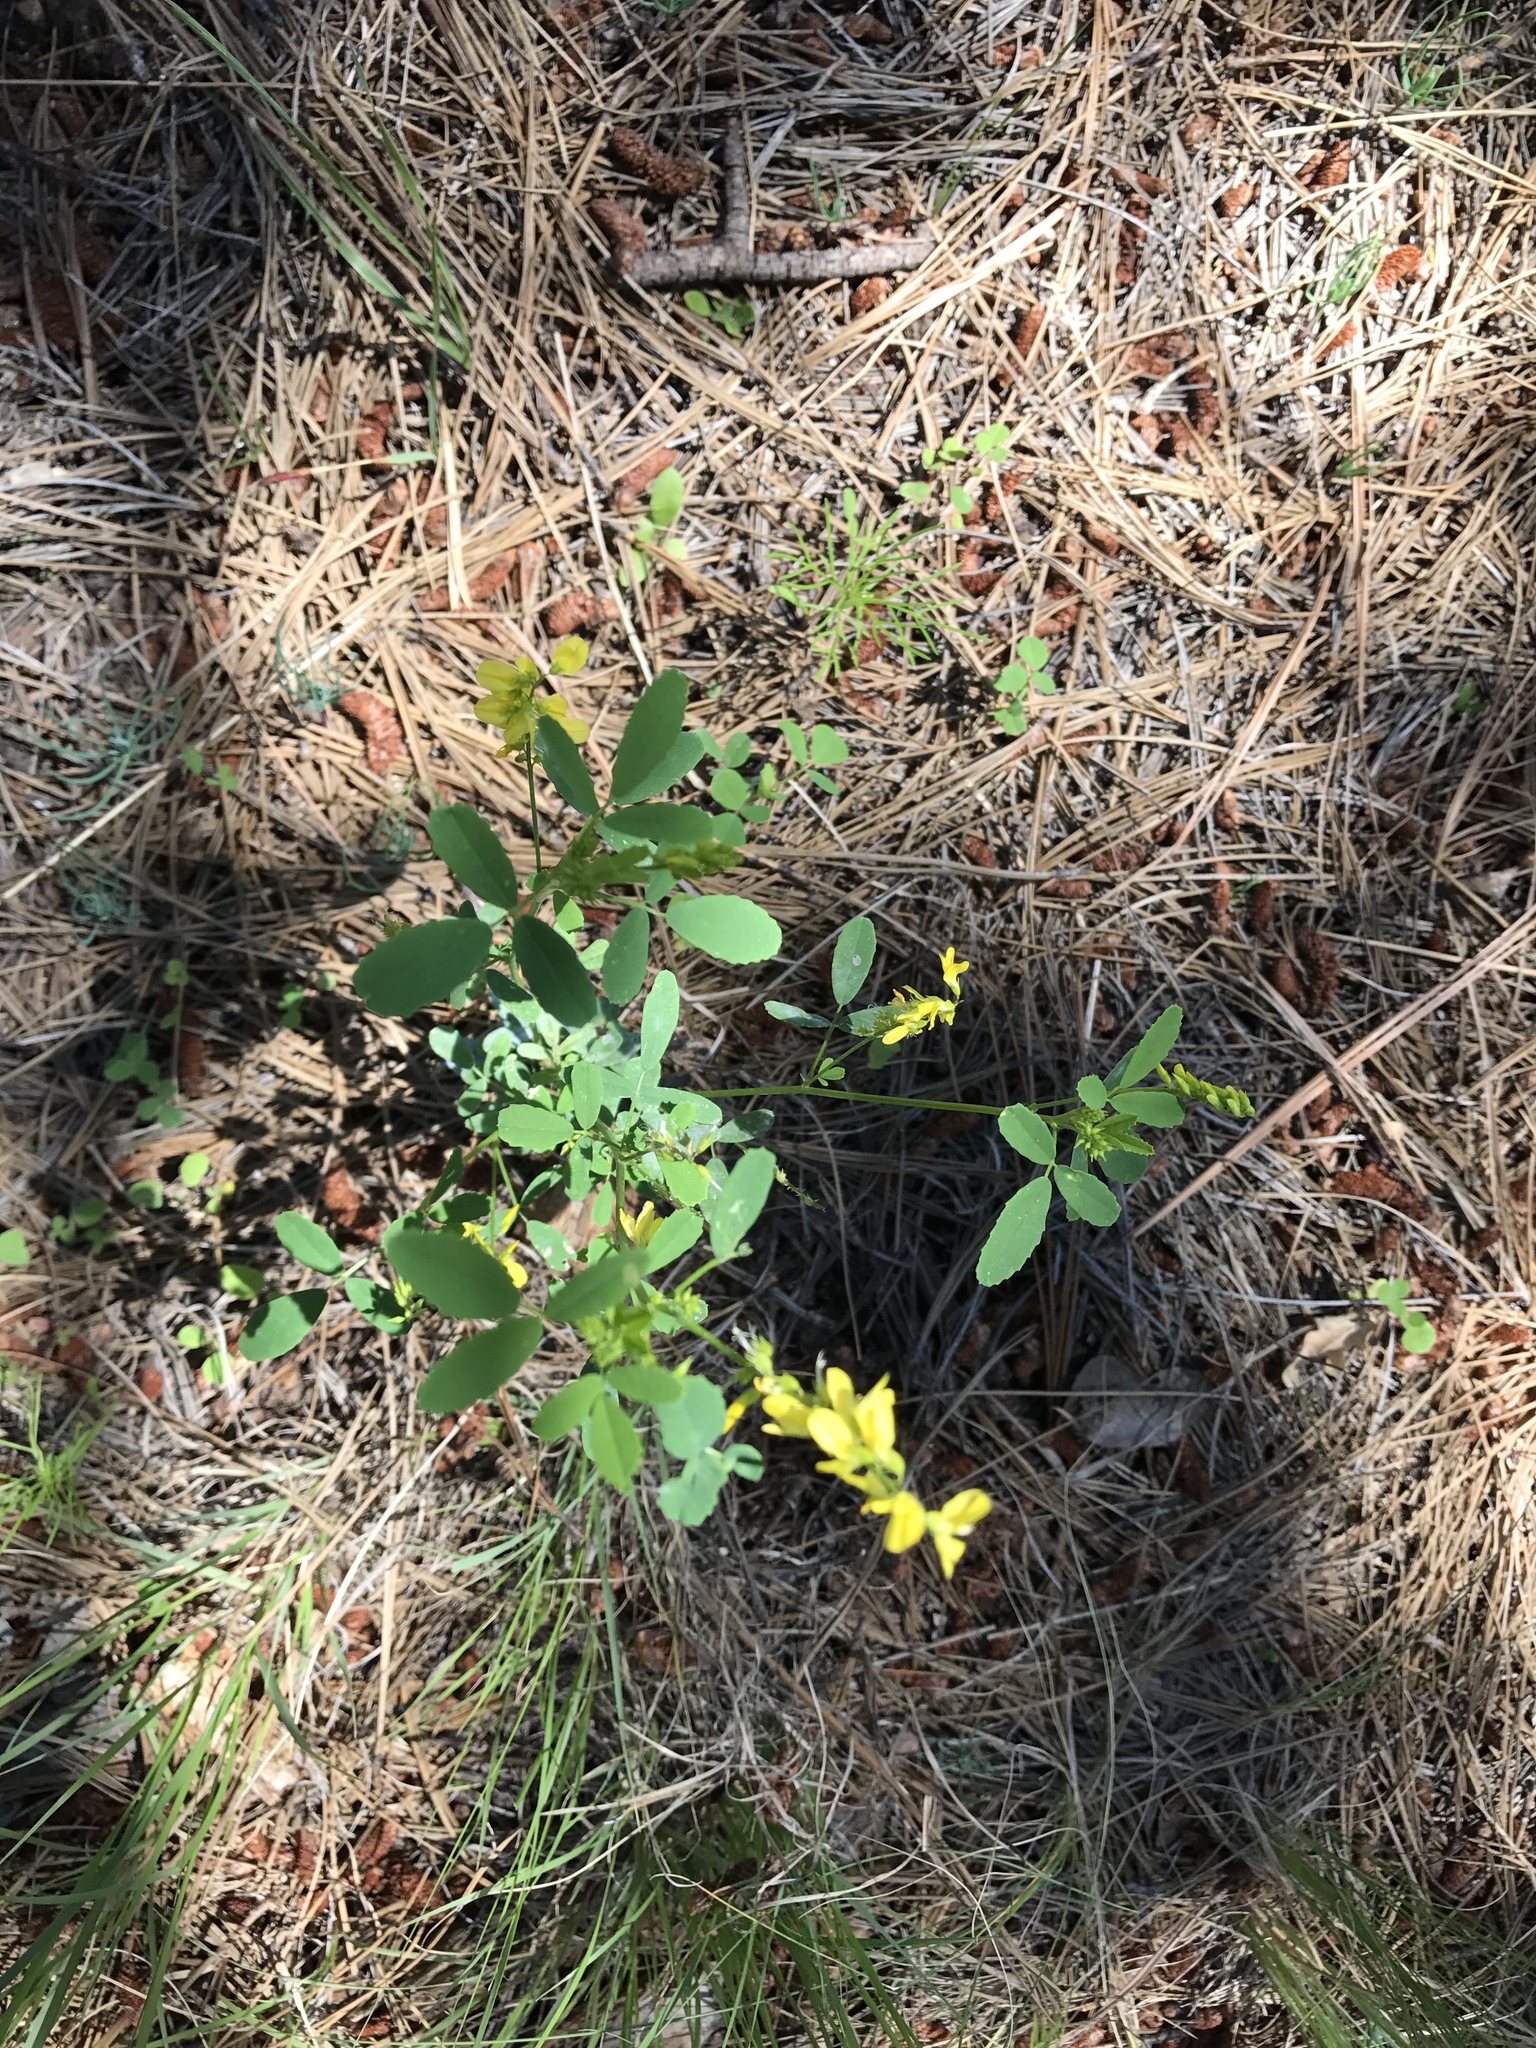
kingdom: Plantae
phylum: Tracheophyta
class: Magnoliopsida
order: Fabales
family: Fabaceae
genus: Melilotus
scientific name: Melilotus officinalis
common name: Sweetclover
